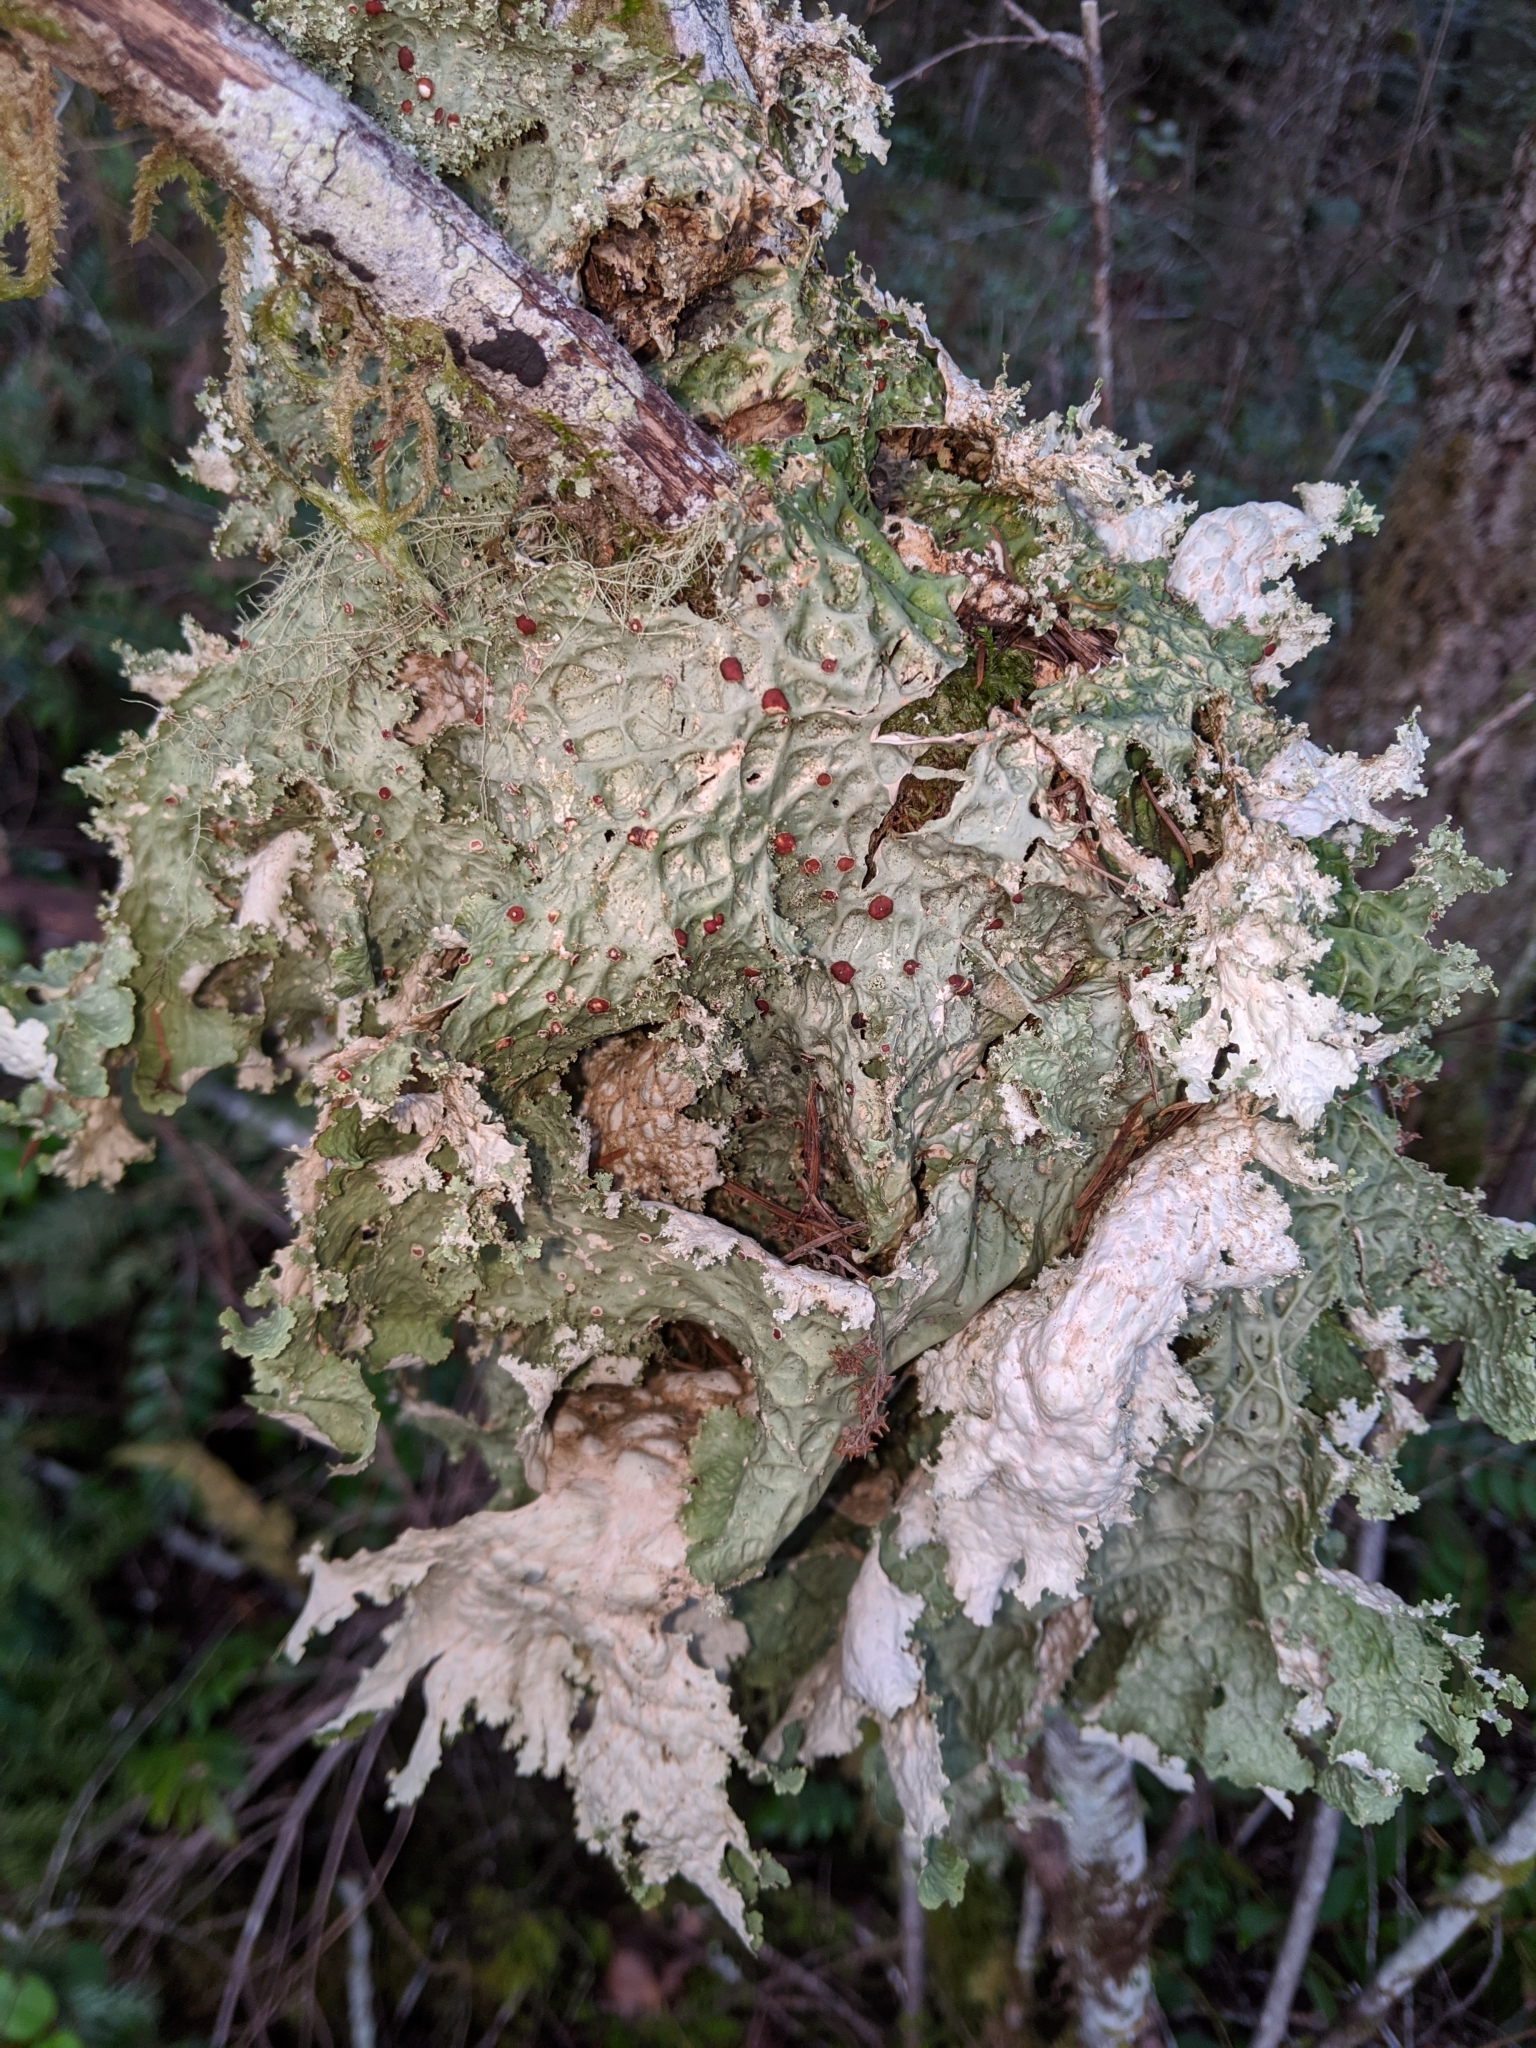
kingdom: Fungi
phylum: Ascomycota
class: Lecanoromycetes
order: Peltigerales
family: Lobariaceae
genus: Lobaria
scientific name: Lobaria oregana
